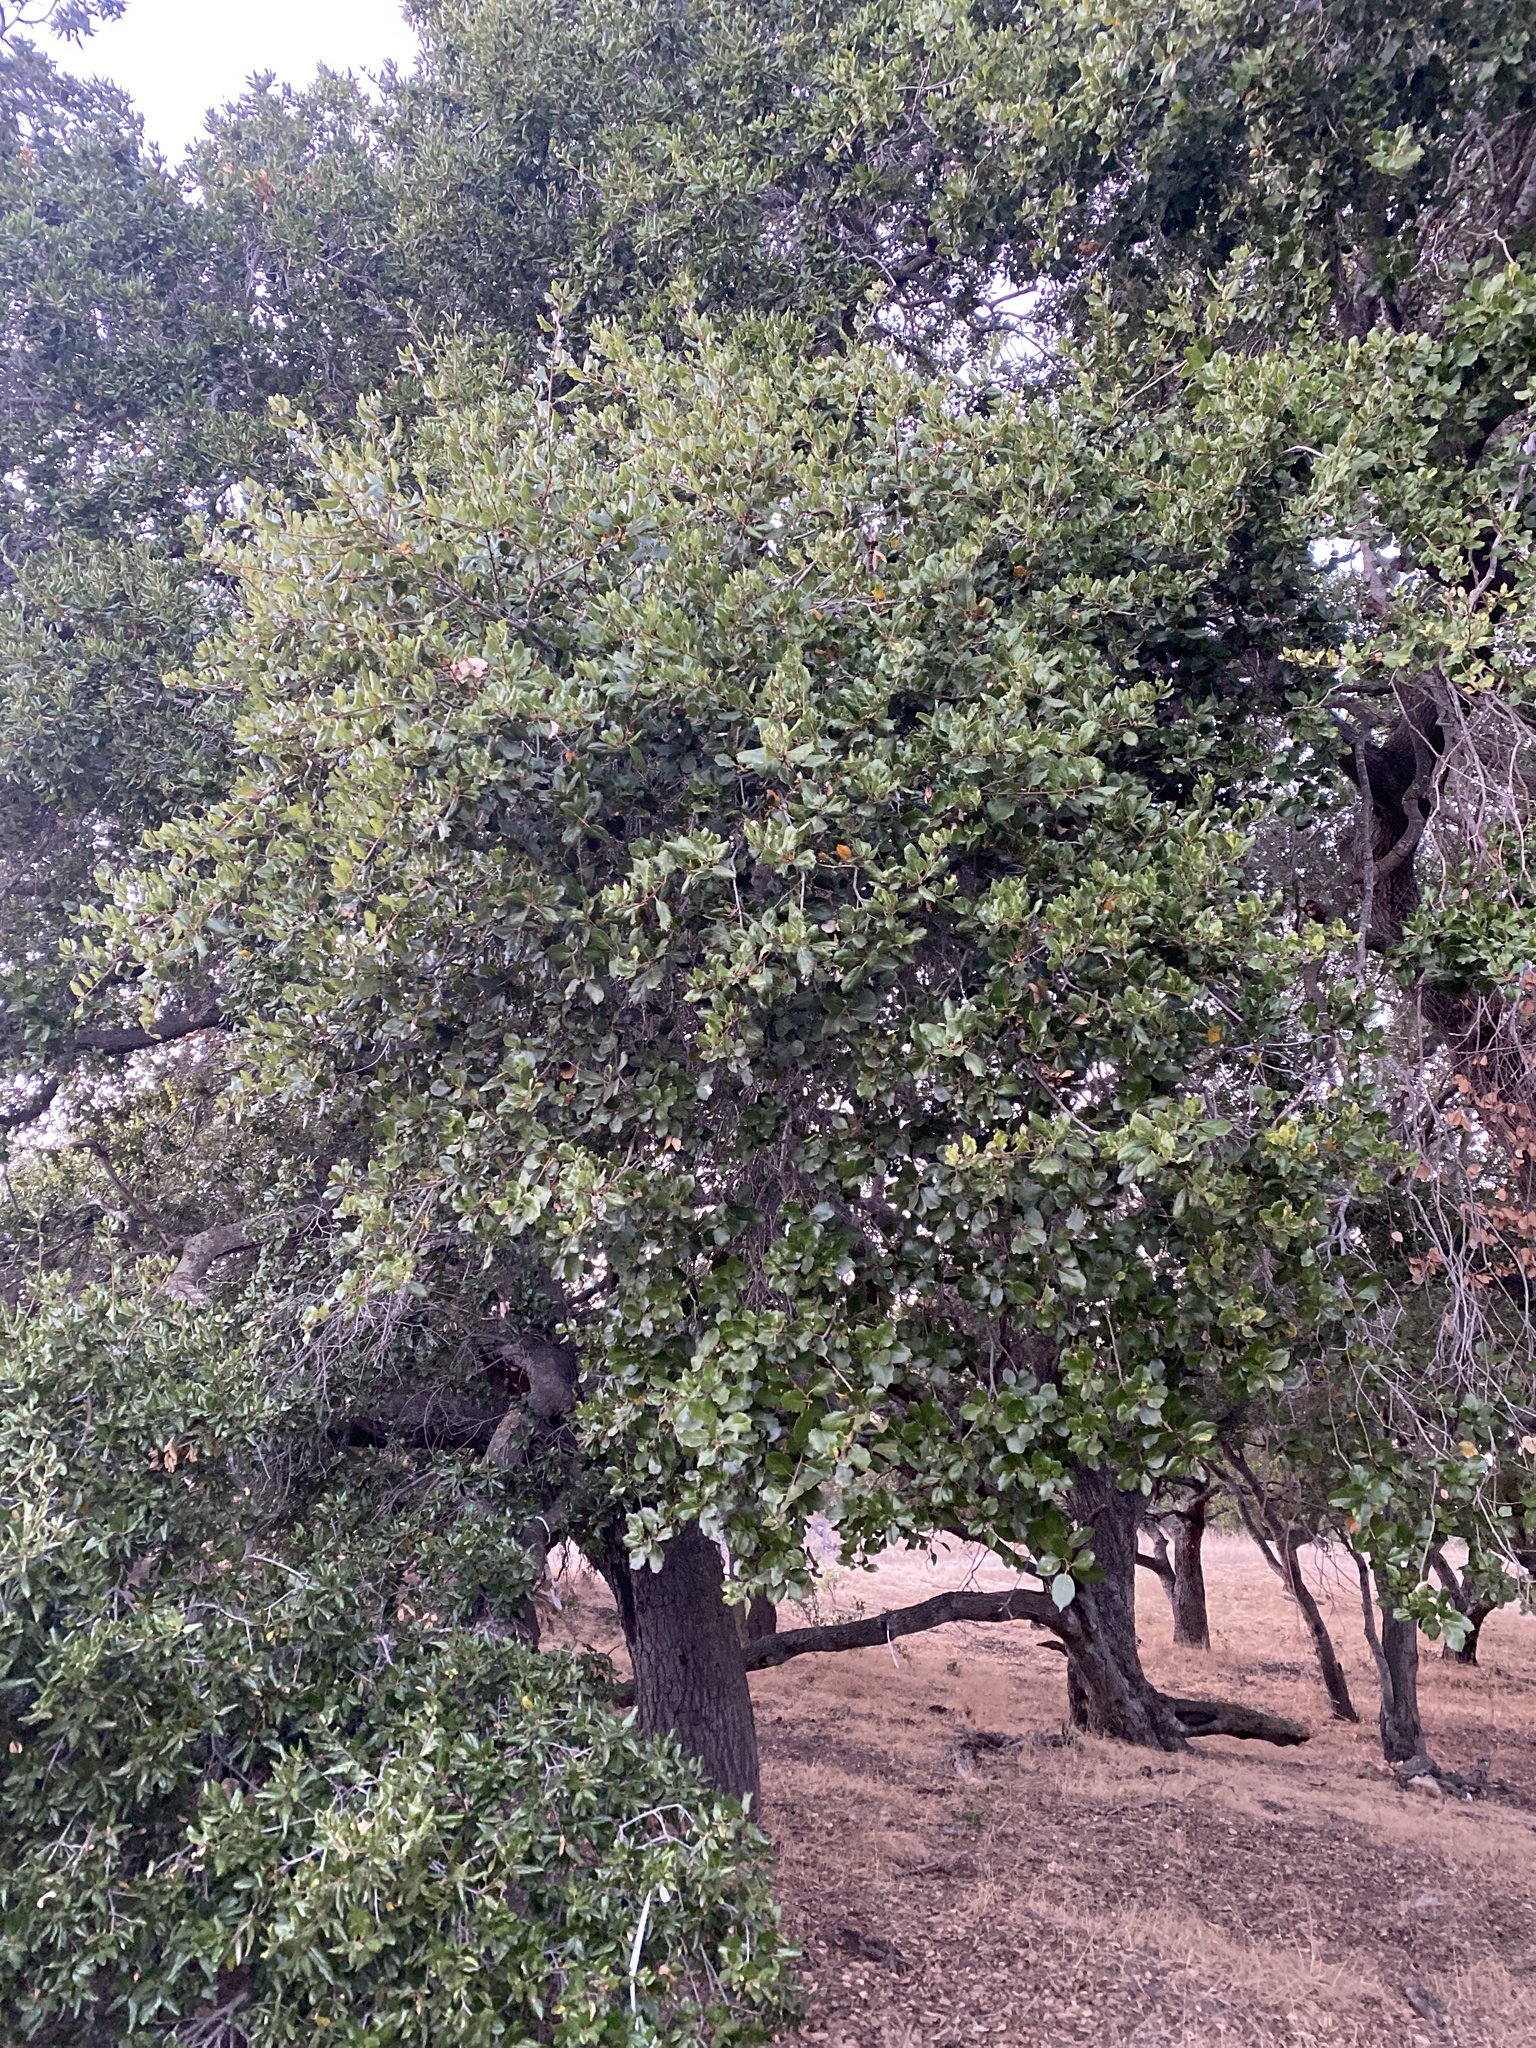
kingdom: Plantae
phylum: Tracheophyta
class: Magnoliopsida
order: Fagales
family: Fagaceae
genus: Quercus
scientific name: Quercus agrifolia
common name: California live oak
